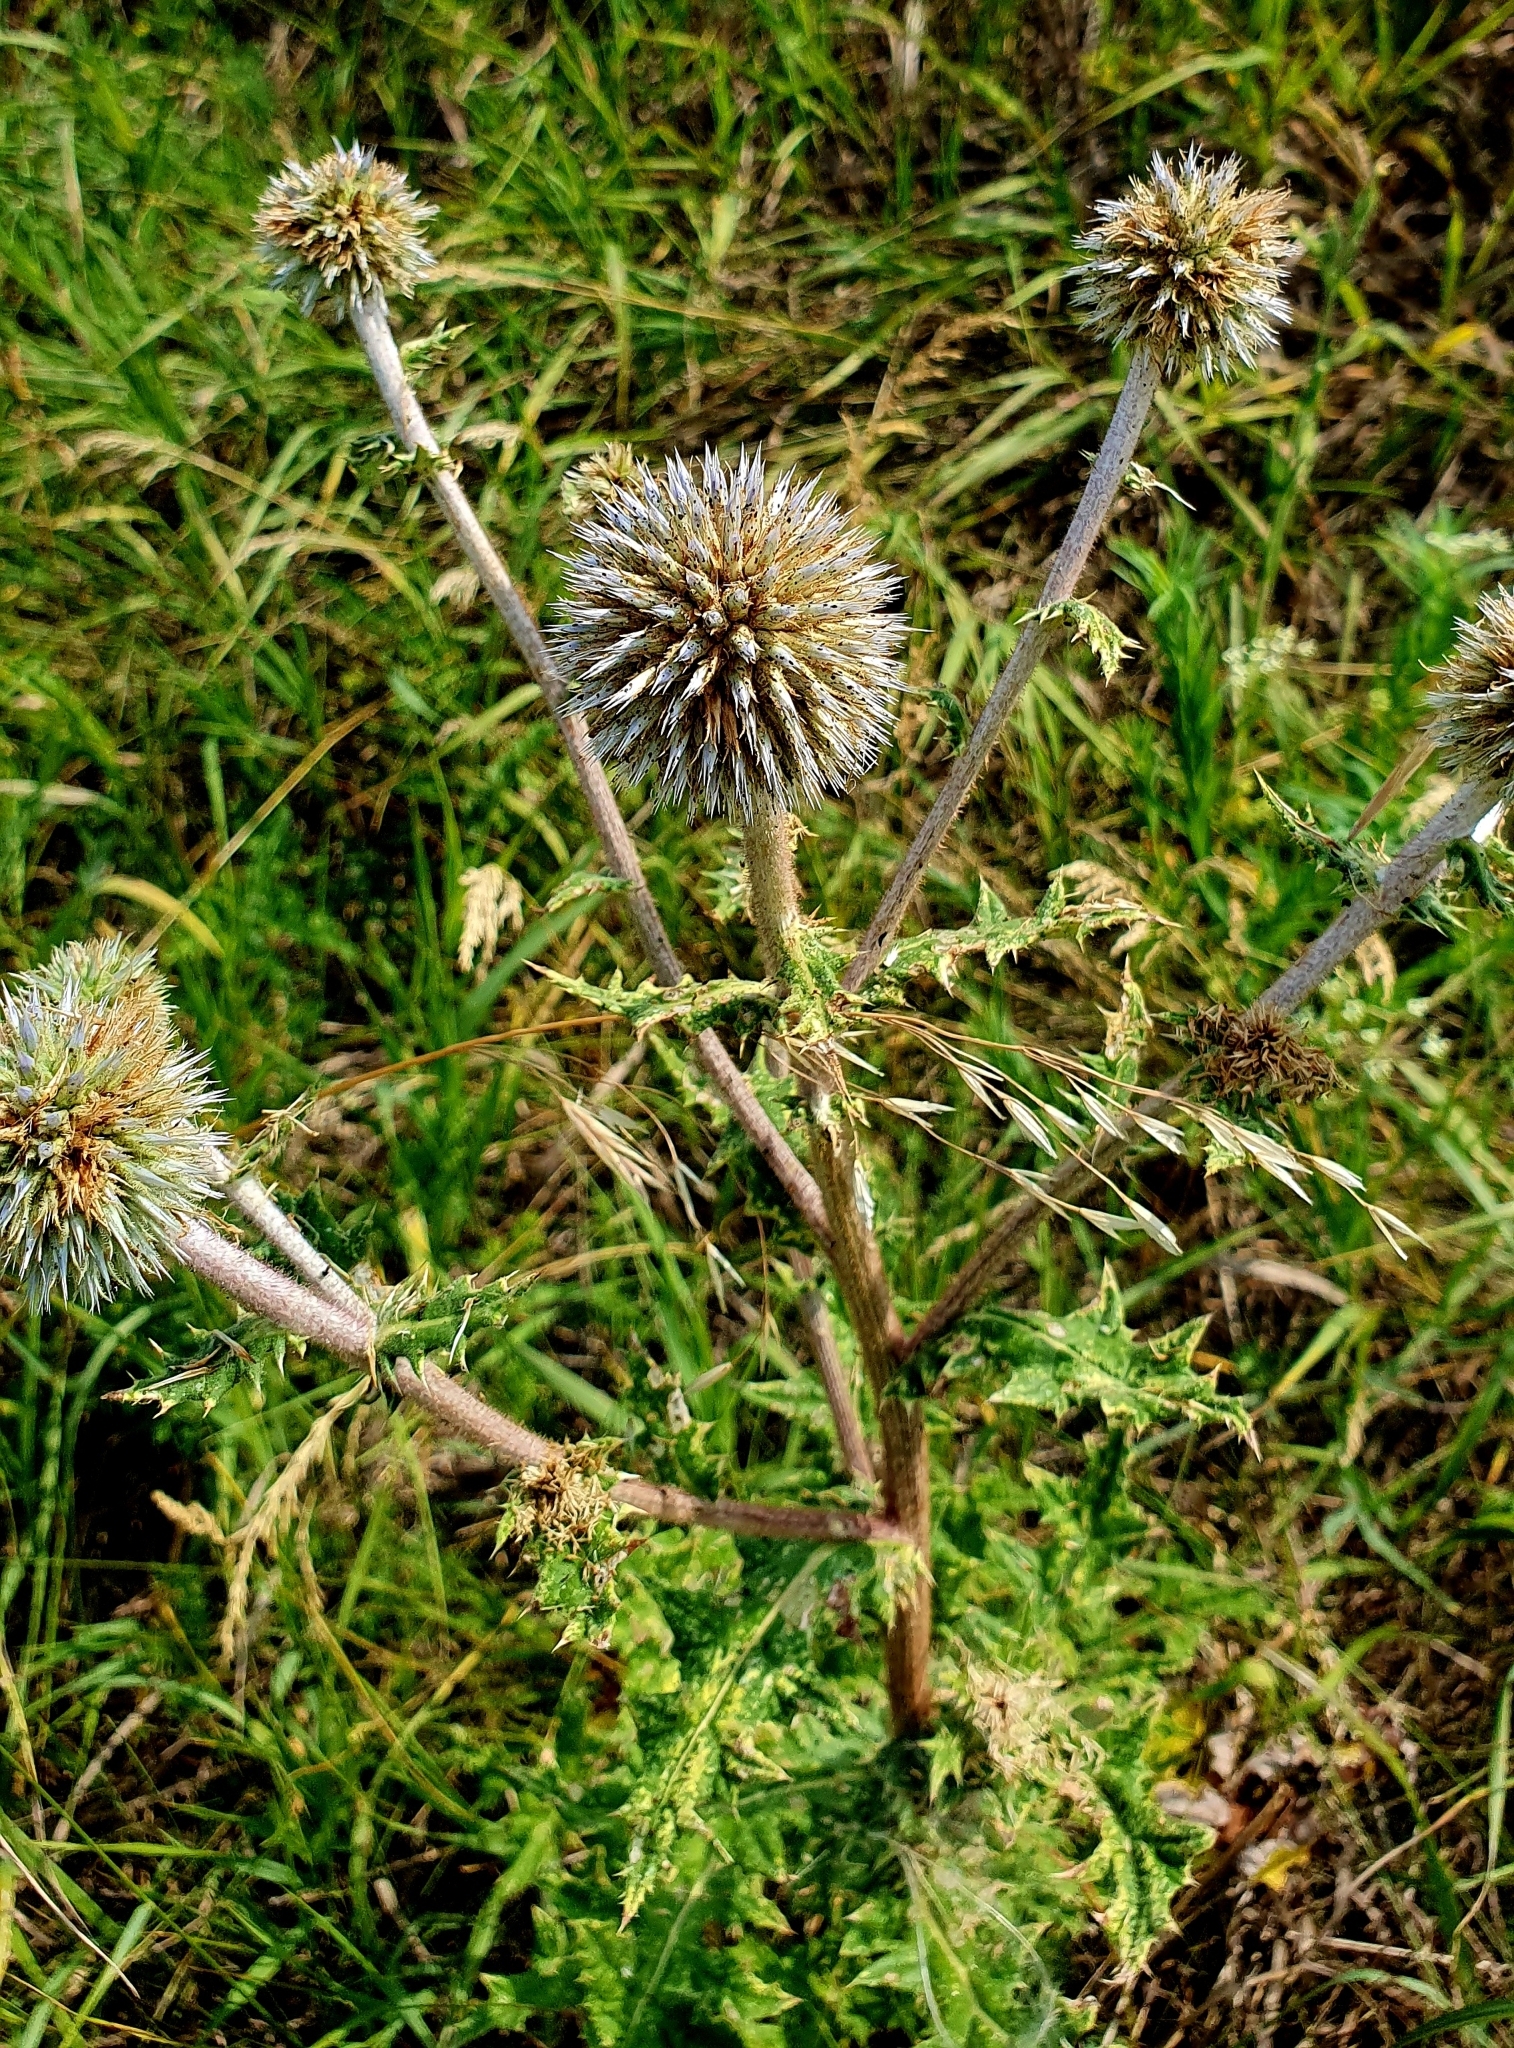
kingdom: Plantae
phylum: Tracheophyta
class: Magnoliopsida
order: Asterales
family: Asteraceae
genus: Echinops
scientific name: Echinops sphaerocephalus
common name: Glandular globe-thistle
